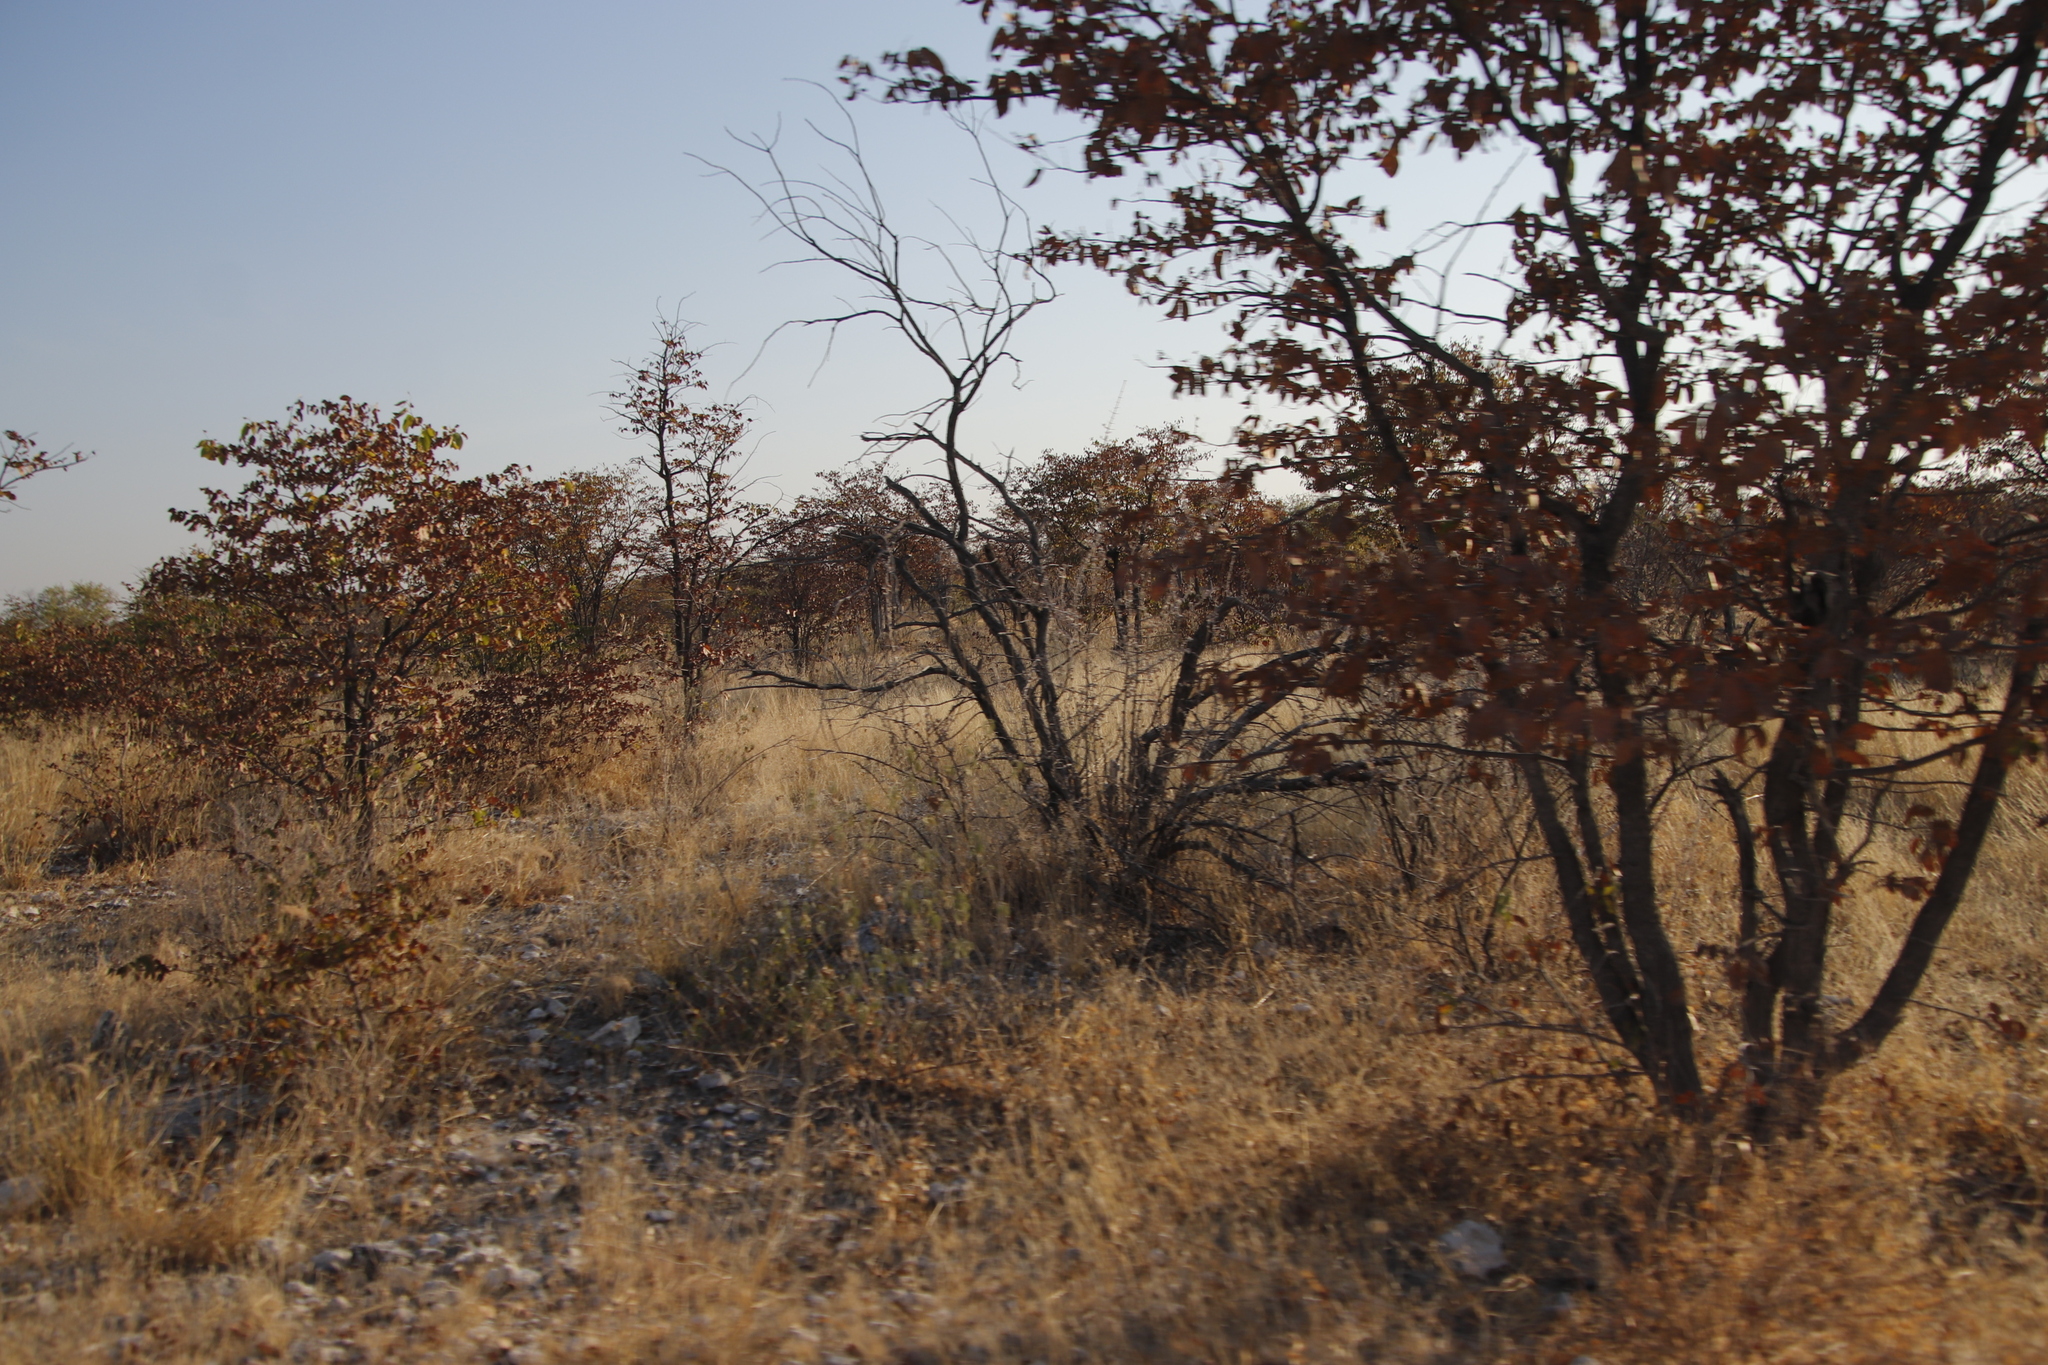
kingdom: Plantae
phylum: Tracheophyta
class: Magnoliopsida
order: Fabales
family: Fabaceae
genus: Colophospermum
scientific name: Colophospermum mopane
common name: Mopane
